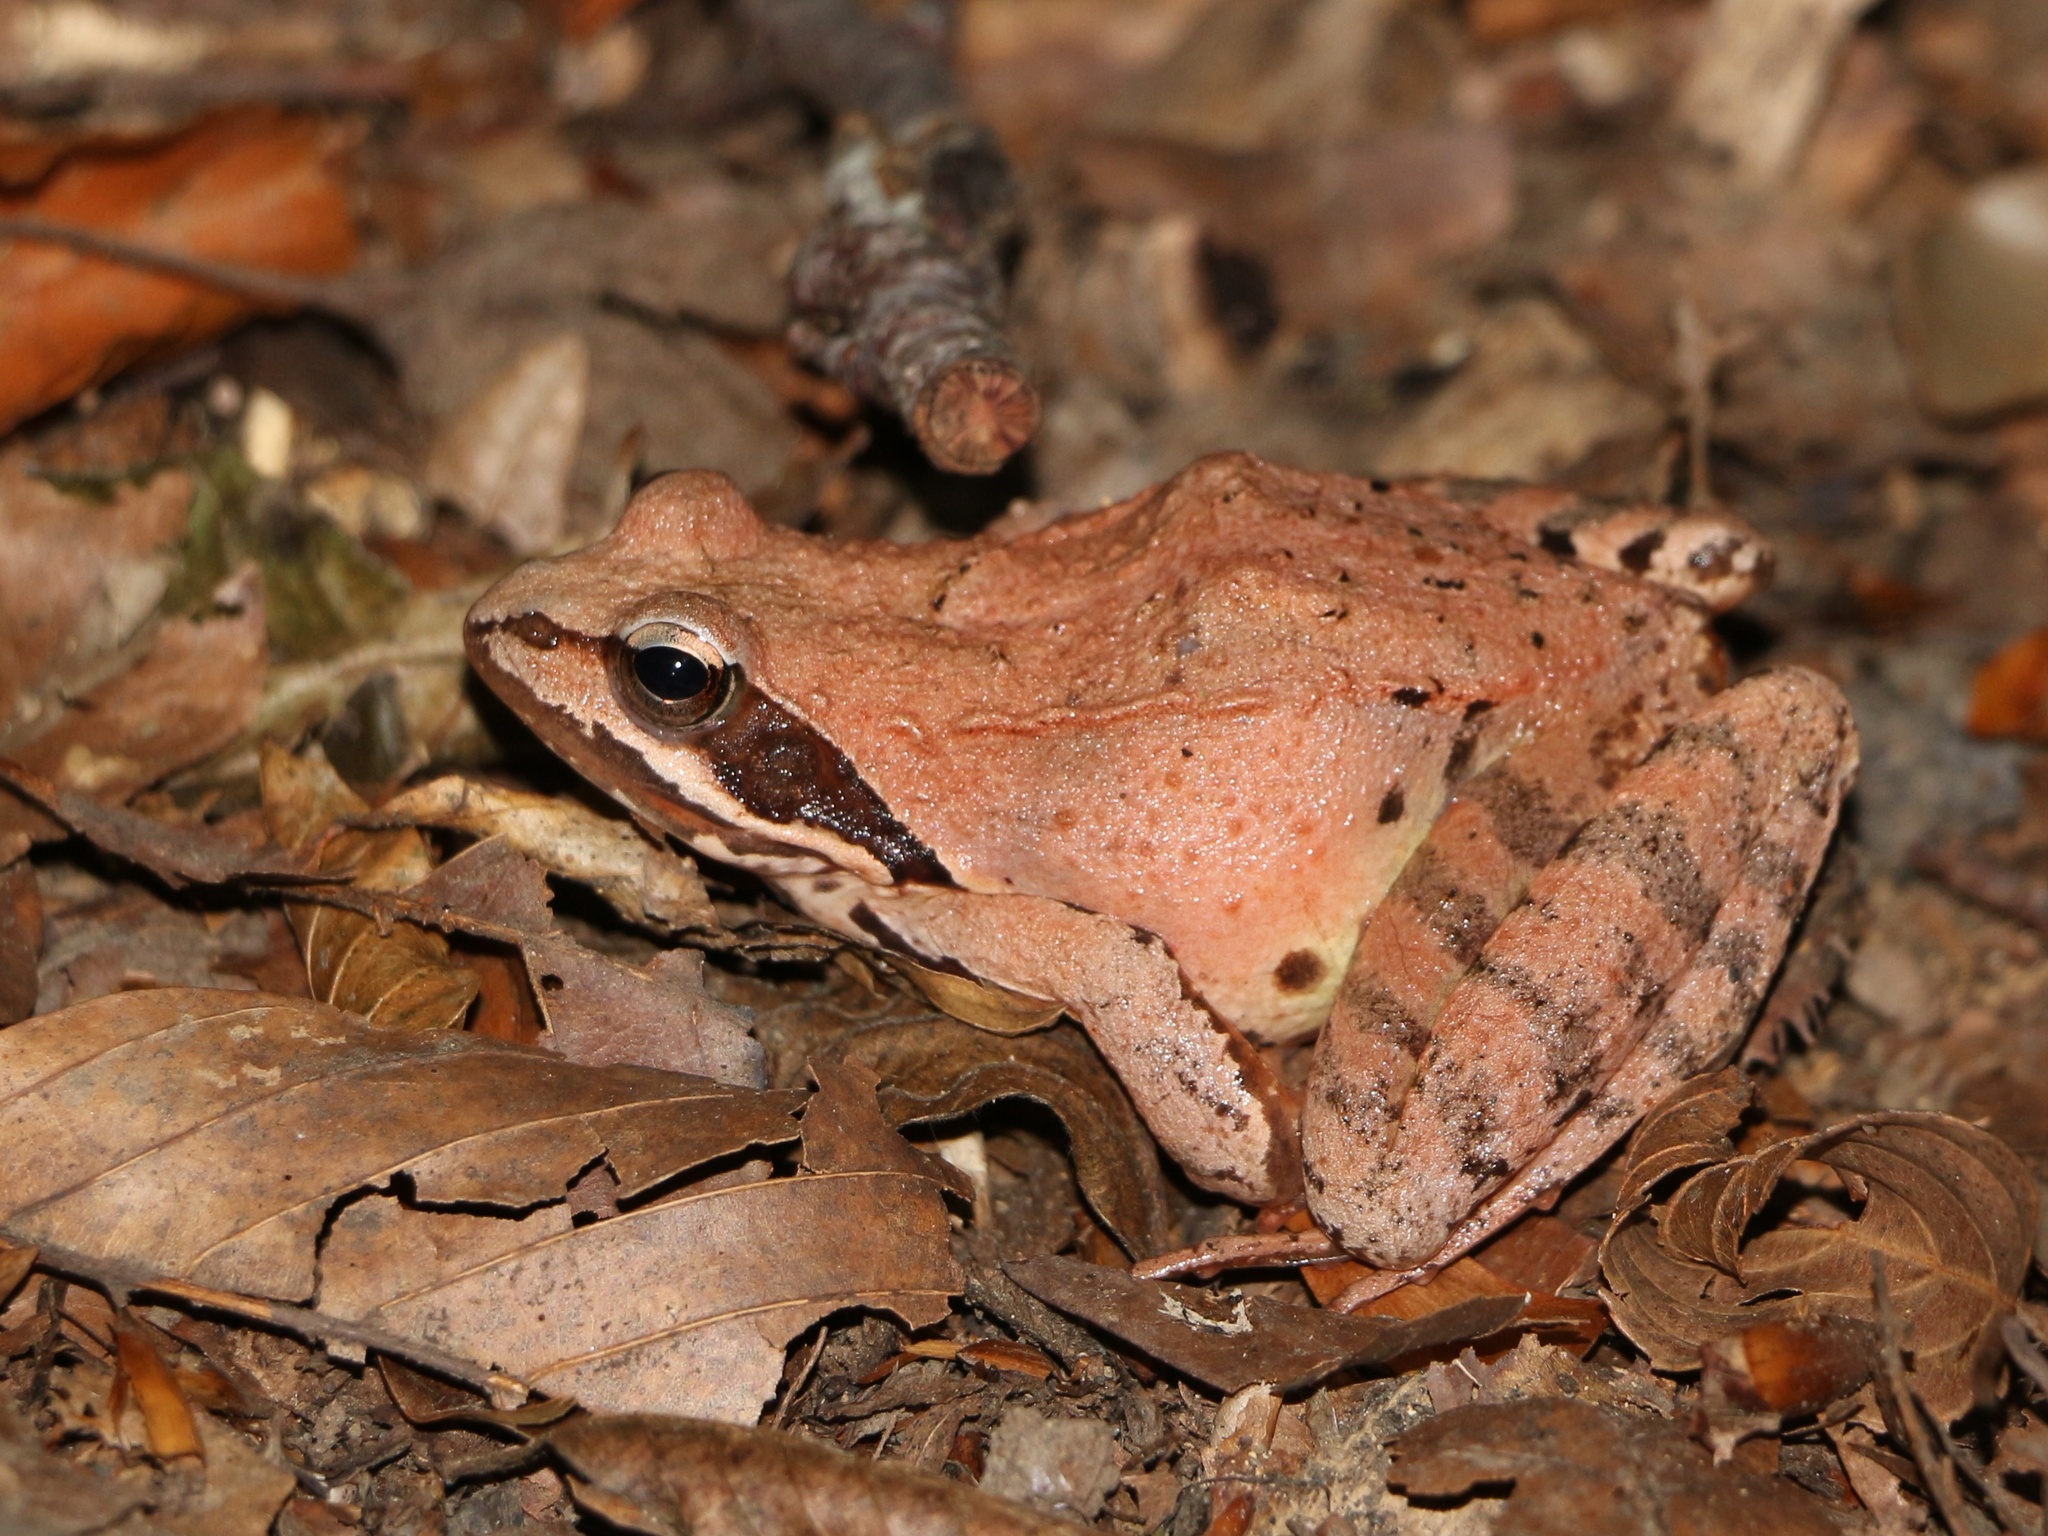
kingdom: Animalia
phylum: Chordata
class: Amphibia
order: Anura
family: Ranidae
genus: Rana
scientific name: Rana macrocnemis
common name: Banded frog
